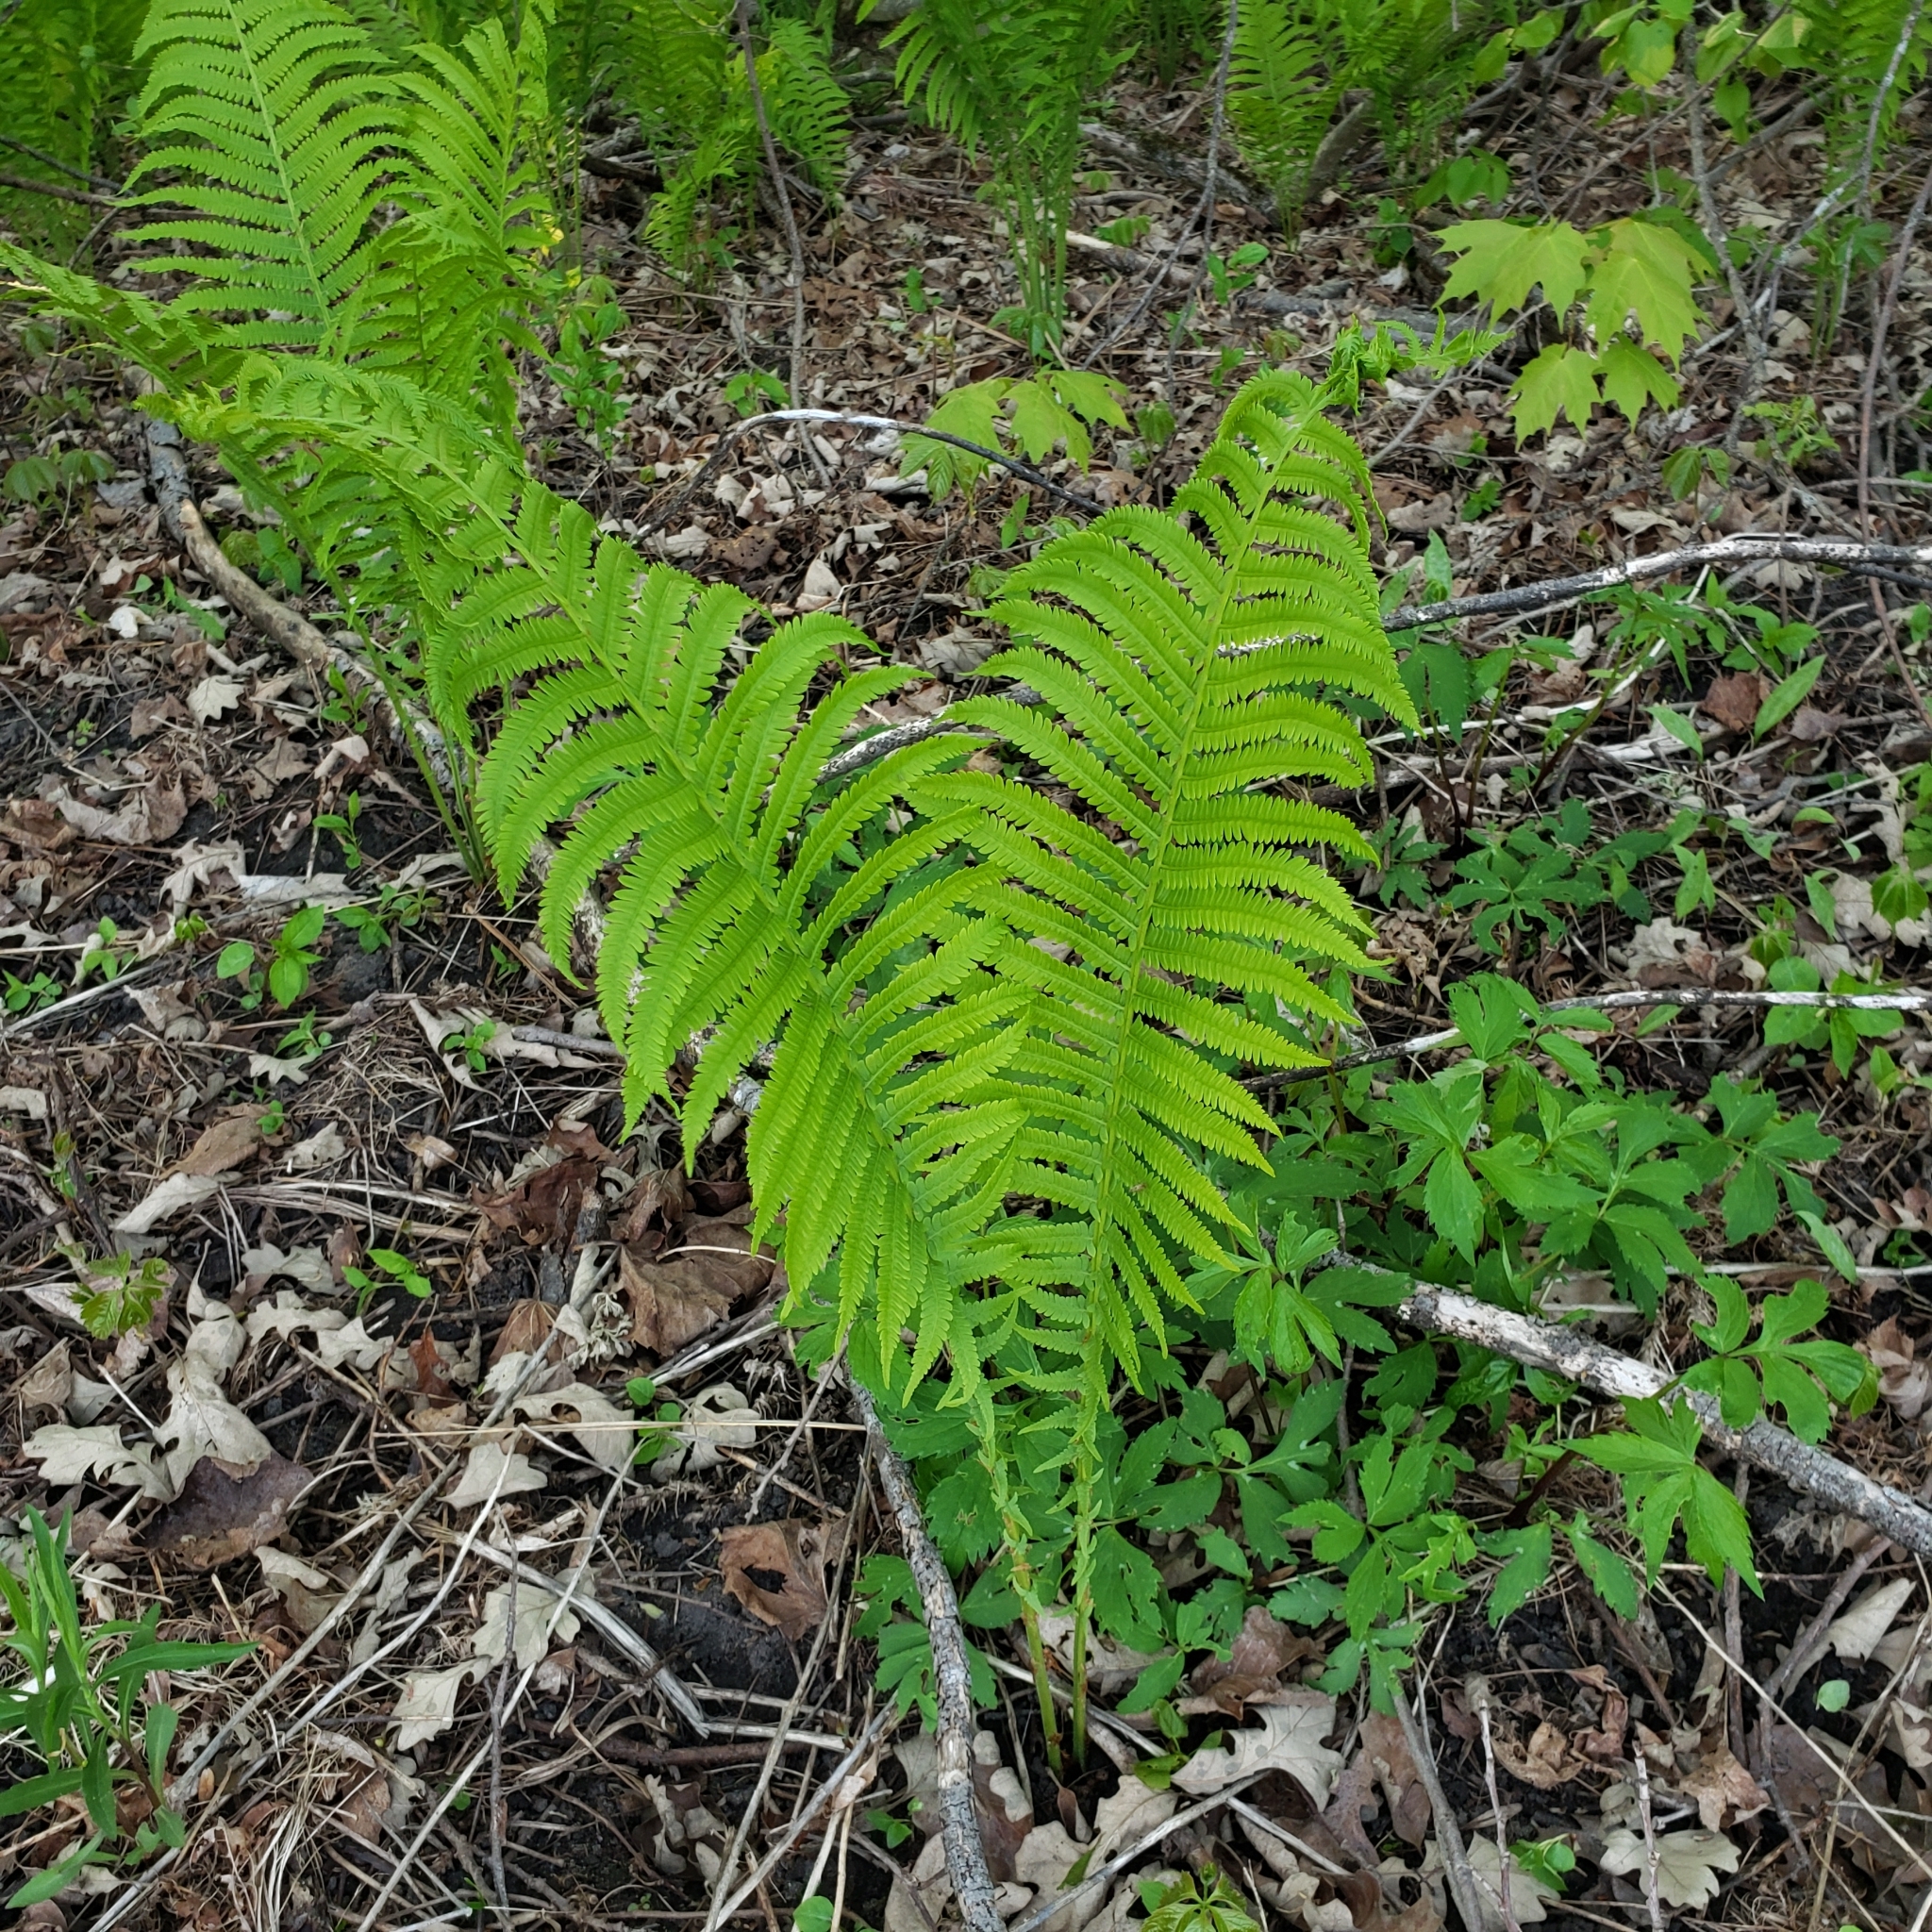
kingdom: Plantae
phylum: Tracheophyta
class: Polypodiopsida
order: Polypodiales
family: Onocleaceae
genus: Matteuccia
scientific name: Matteuccia struthiopteris
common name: Ostrich fern
